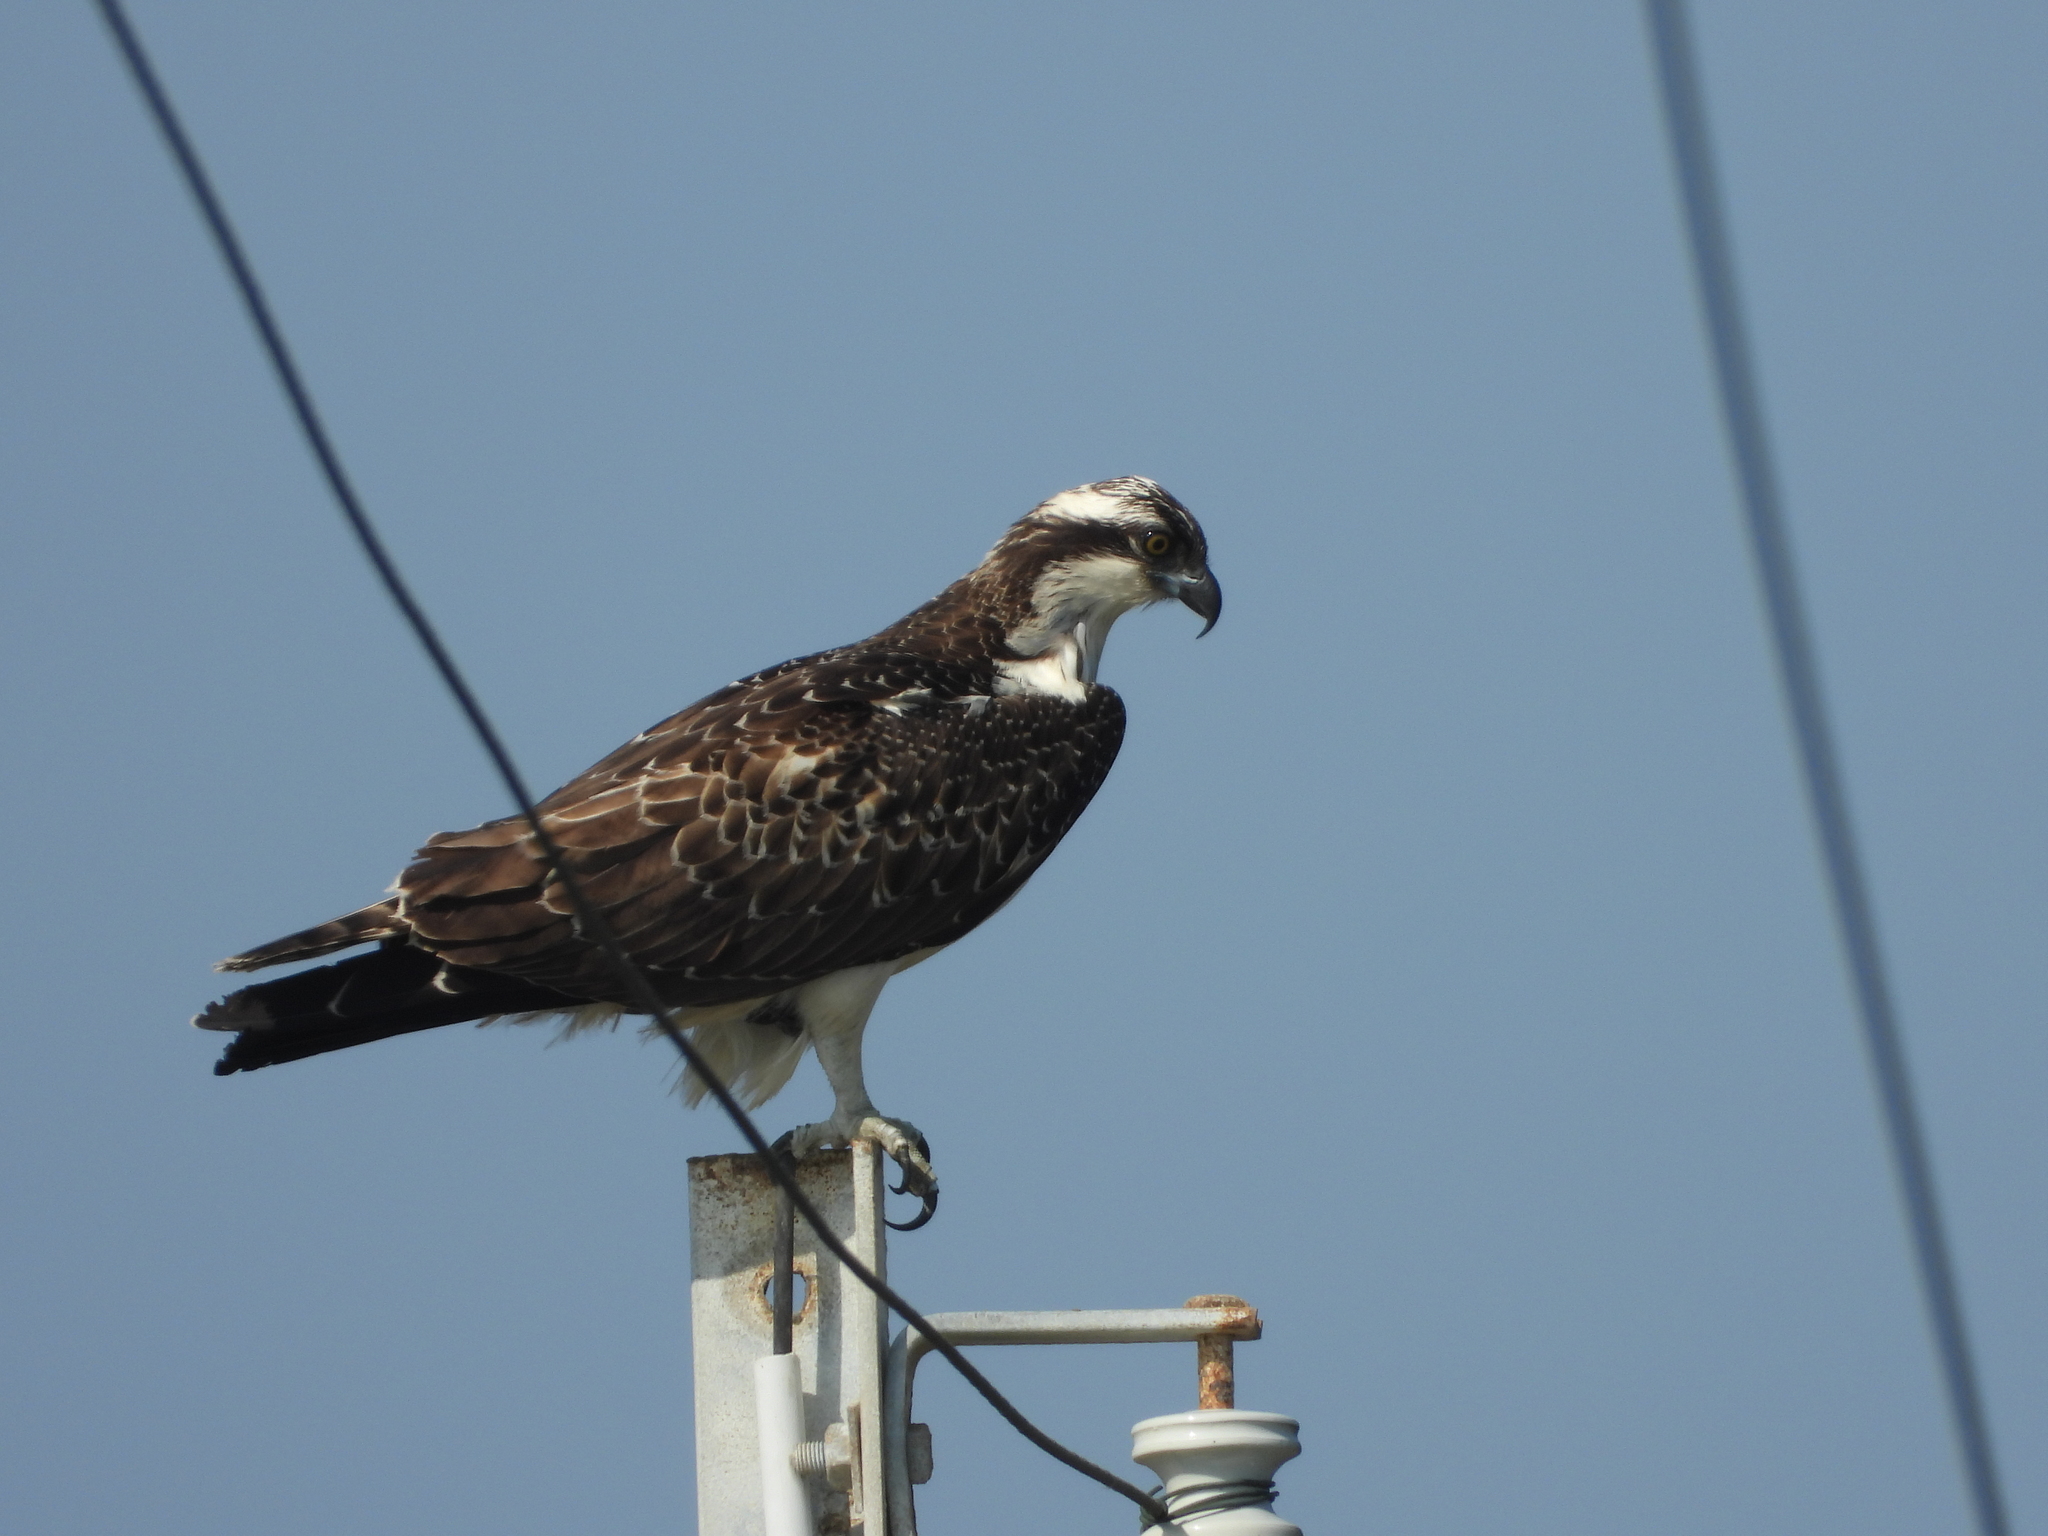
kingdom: Animalia
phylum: Chordata
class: Aves
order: Accipitriformes
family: Pandionidae
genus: Pandion
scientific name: Pandion haliaetus
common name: Osprey
